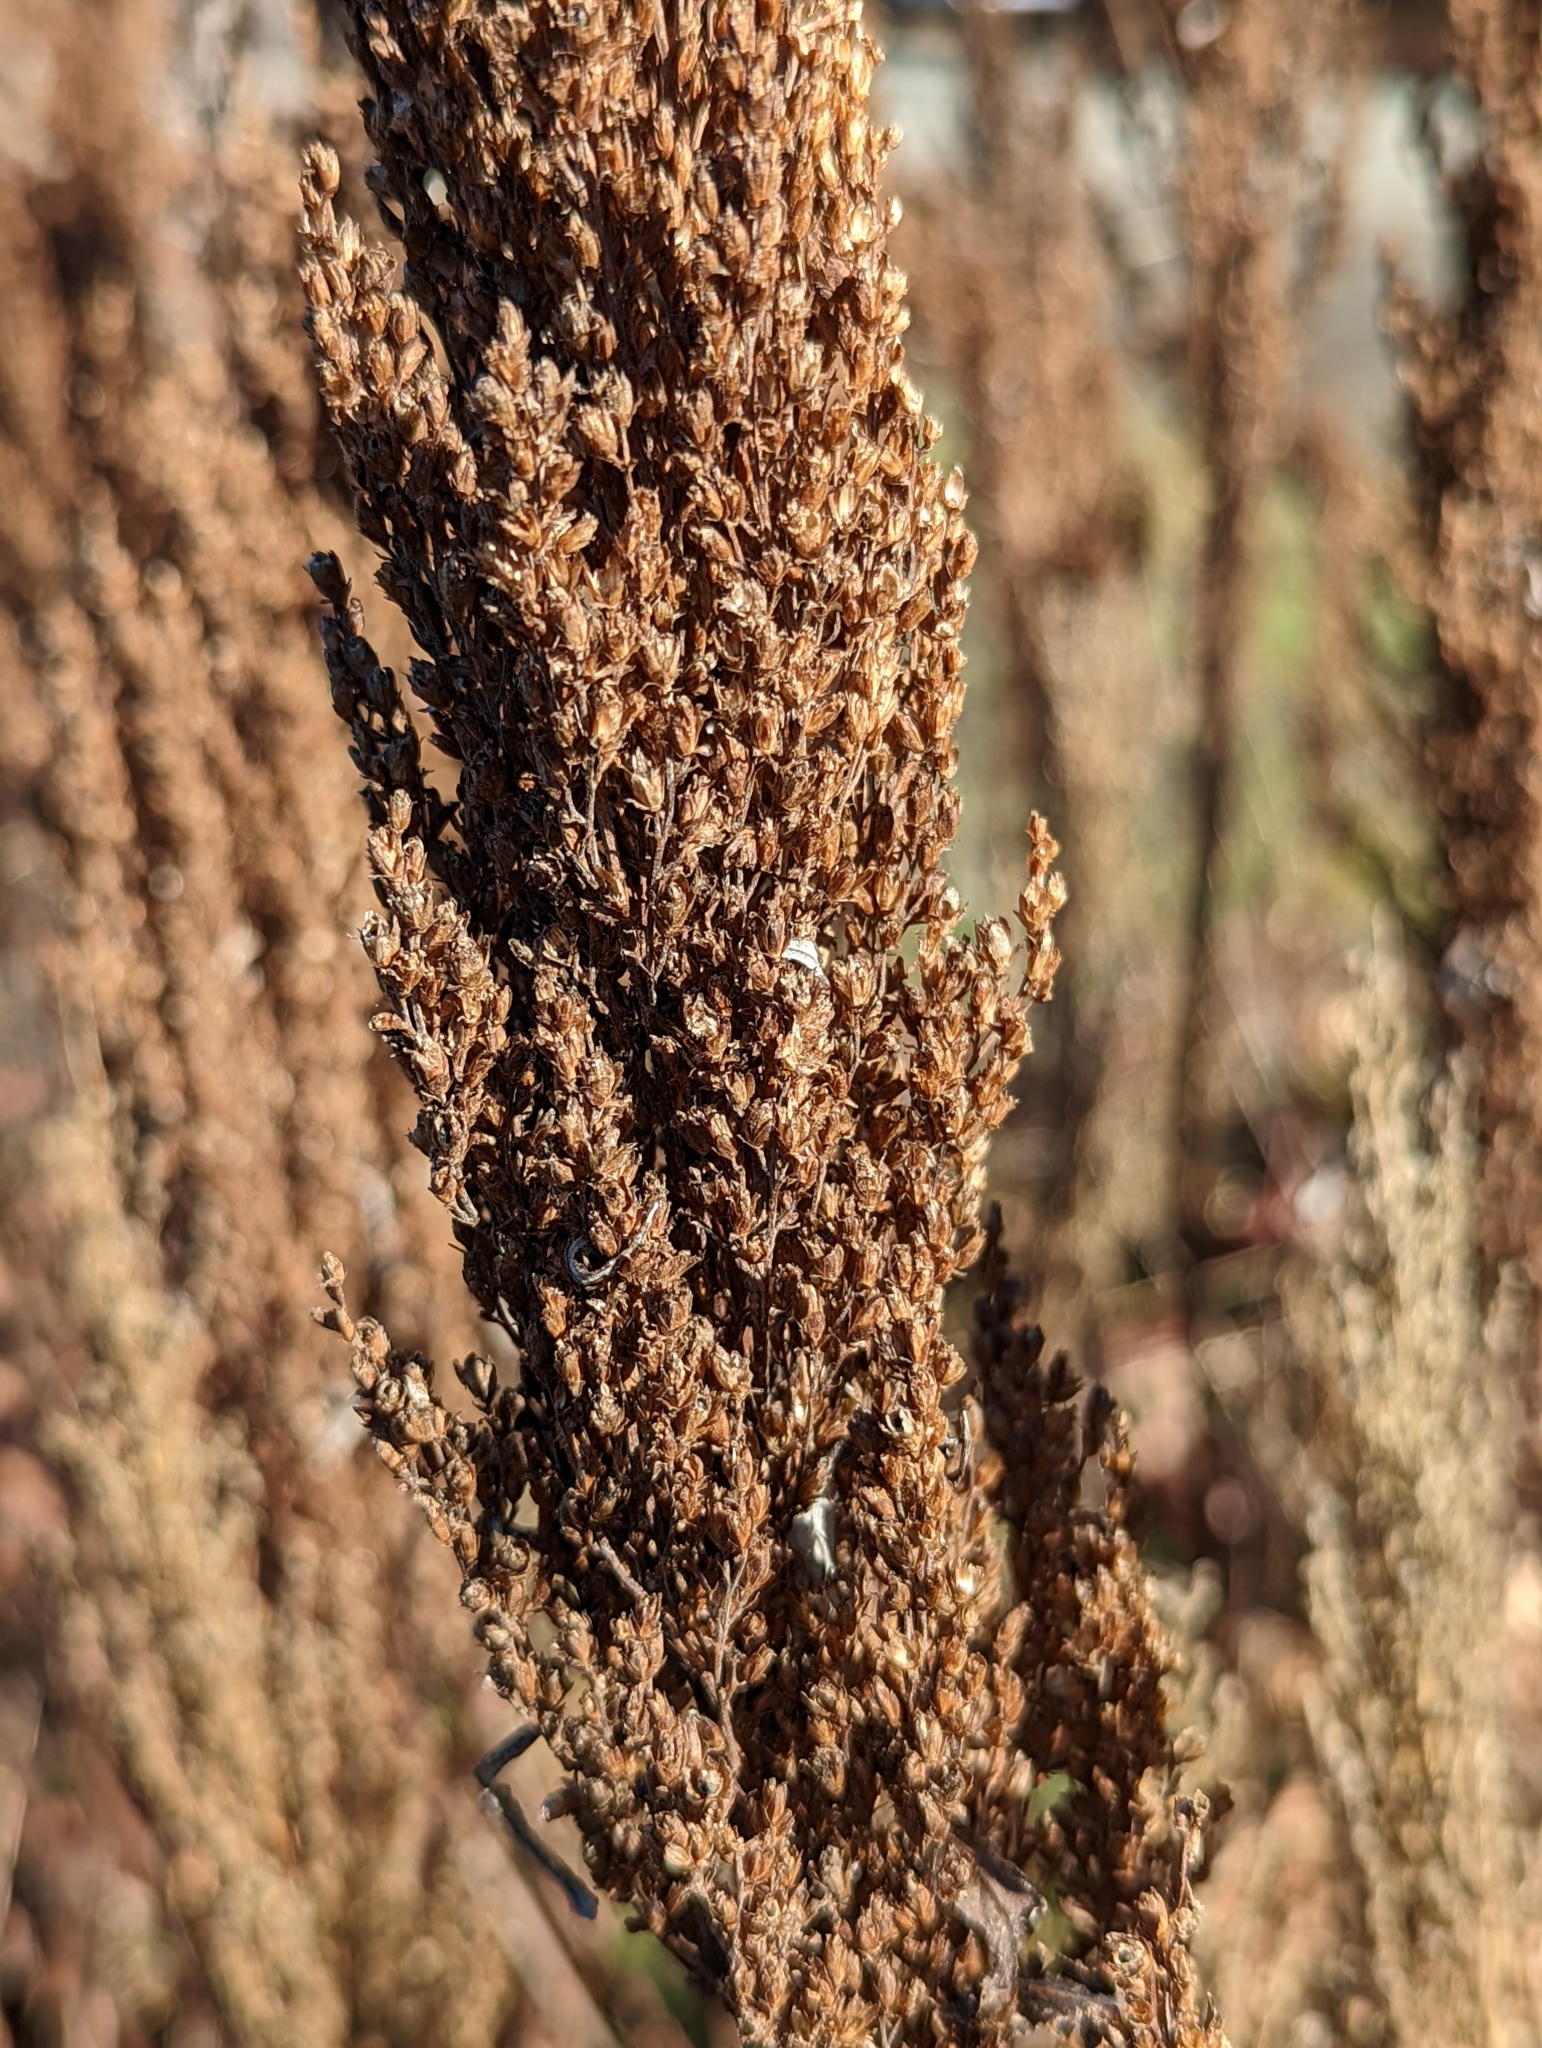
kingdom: Plantae
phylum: Tracheophyta
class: Magnoliopsida
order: Asterales
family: Asteraceae
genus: Artemisia
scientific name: Artemisia suksdorfii
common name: Suksdorf sagewort
